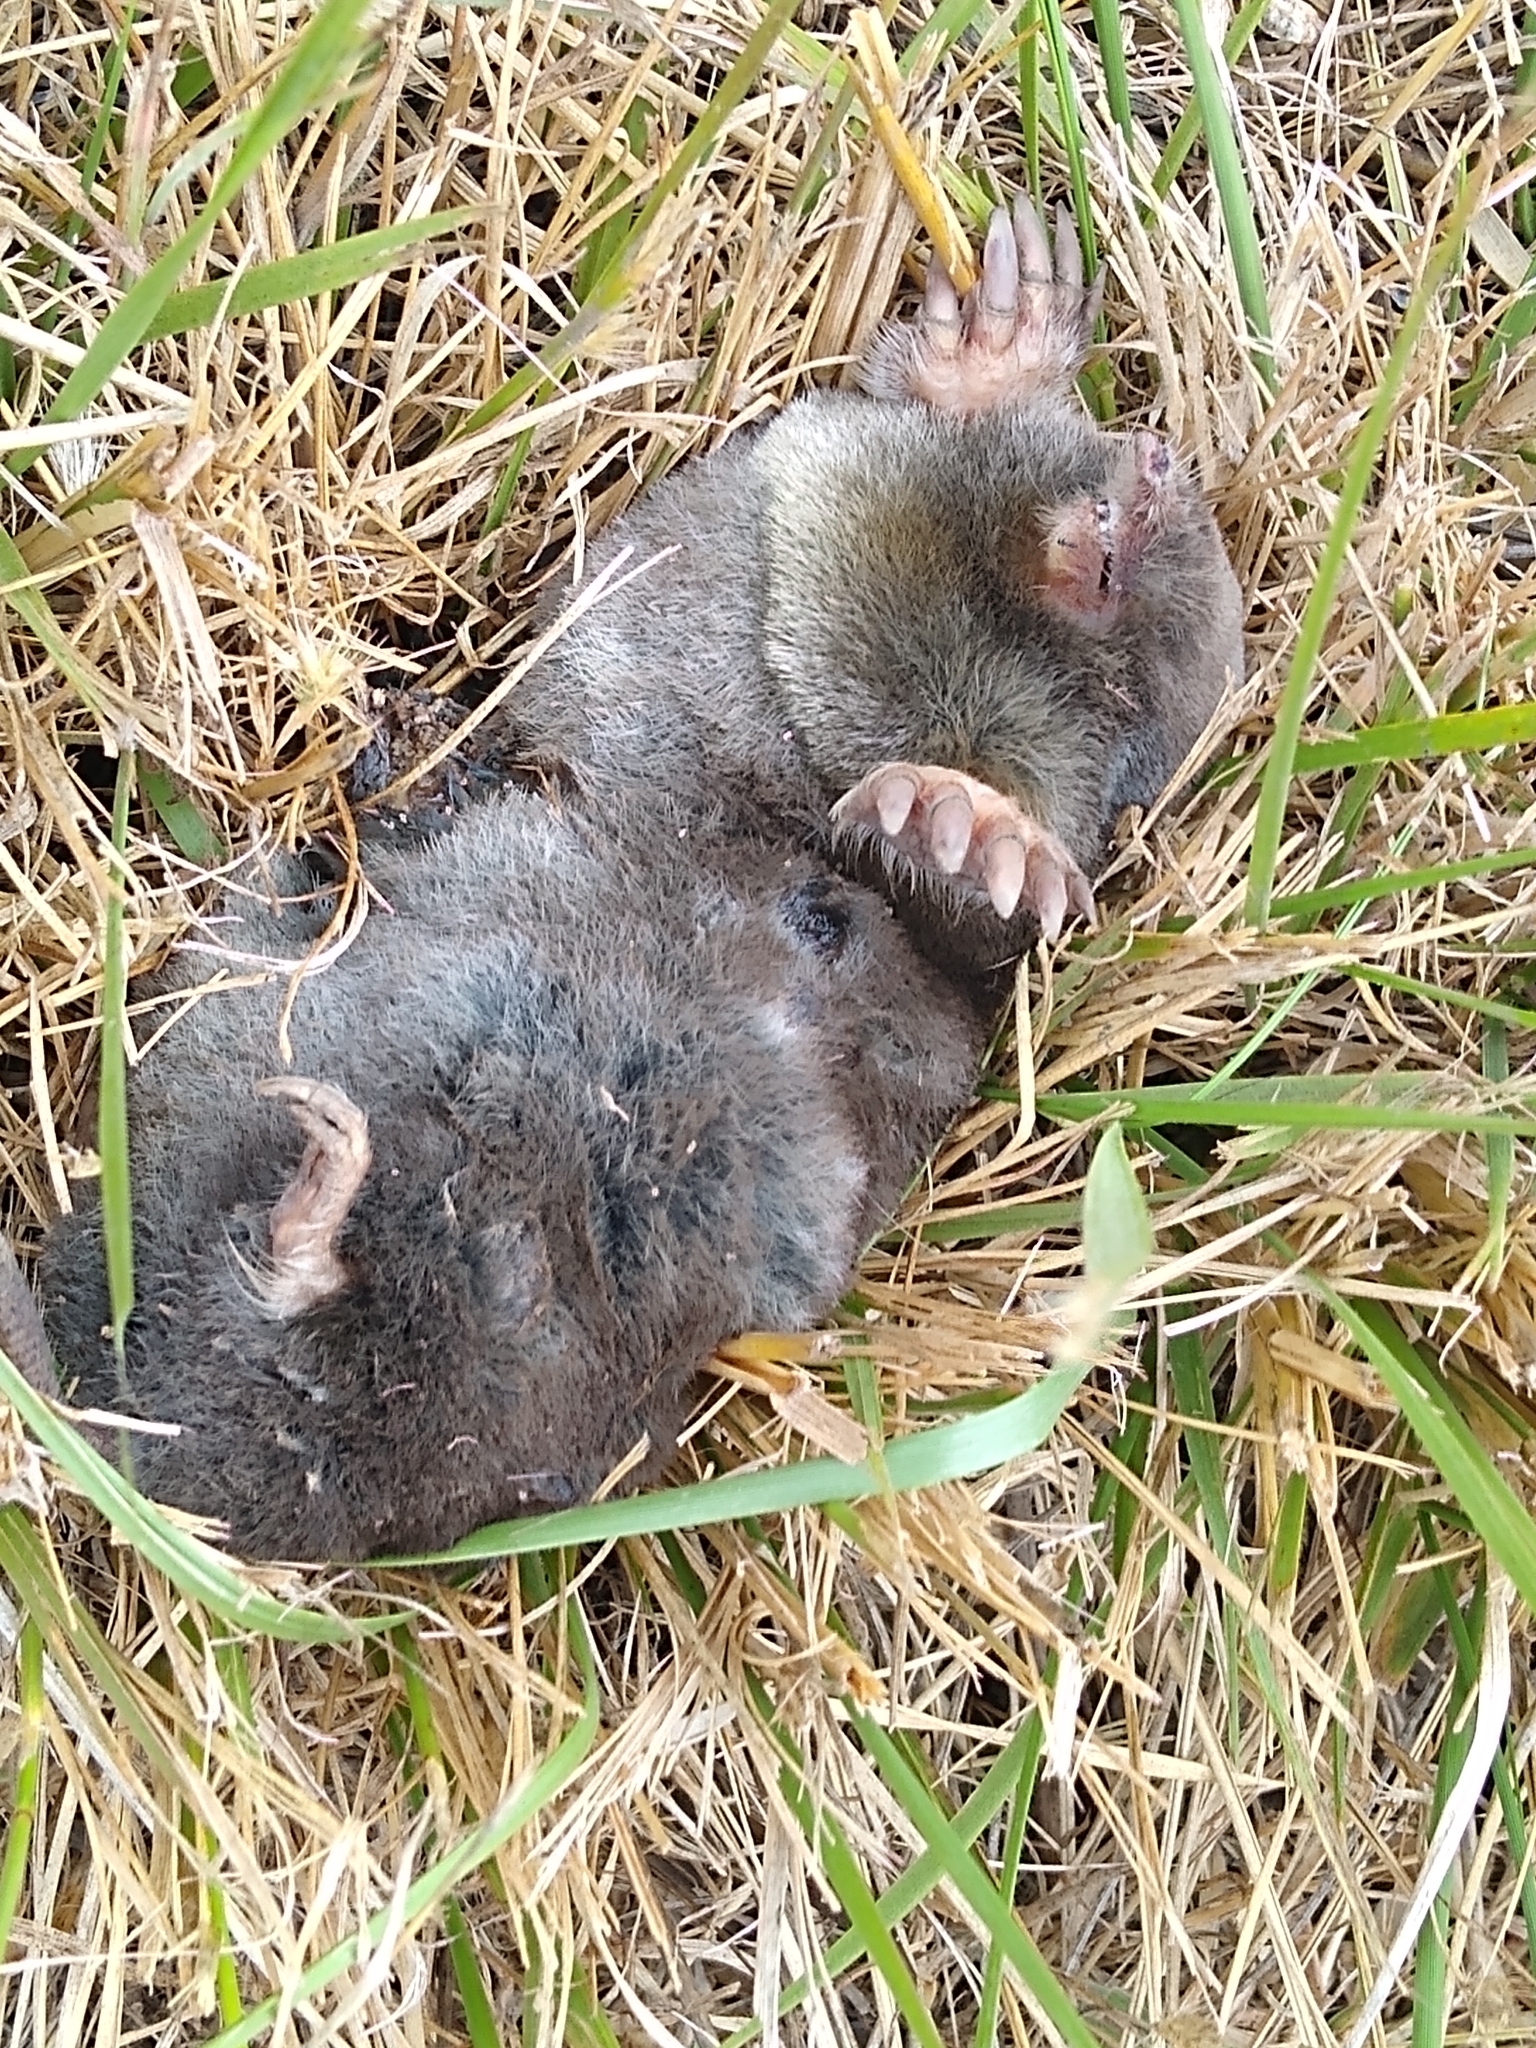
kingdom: Animalia
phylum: Chordata
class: Mammalia
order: Soricomorpha
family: Talpidae
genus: Scapanus
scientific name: Scapanus latimanus
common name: Broad-footed mole
